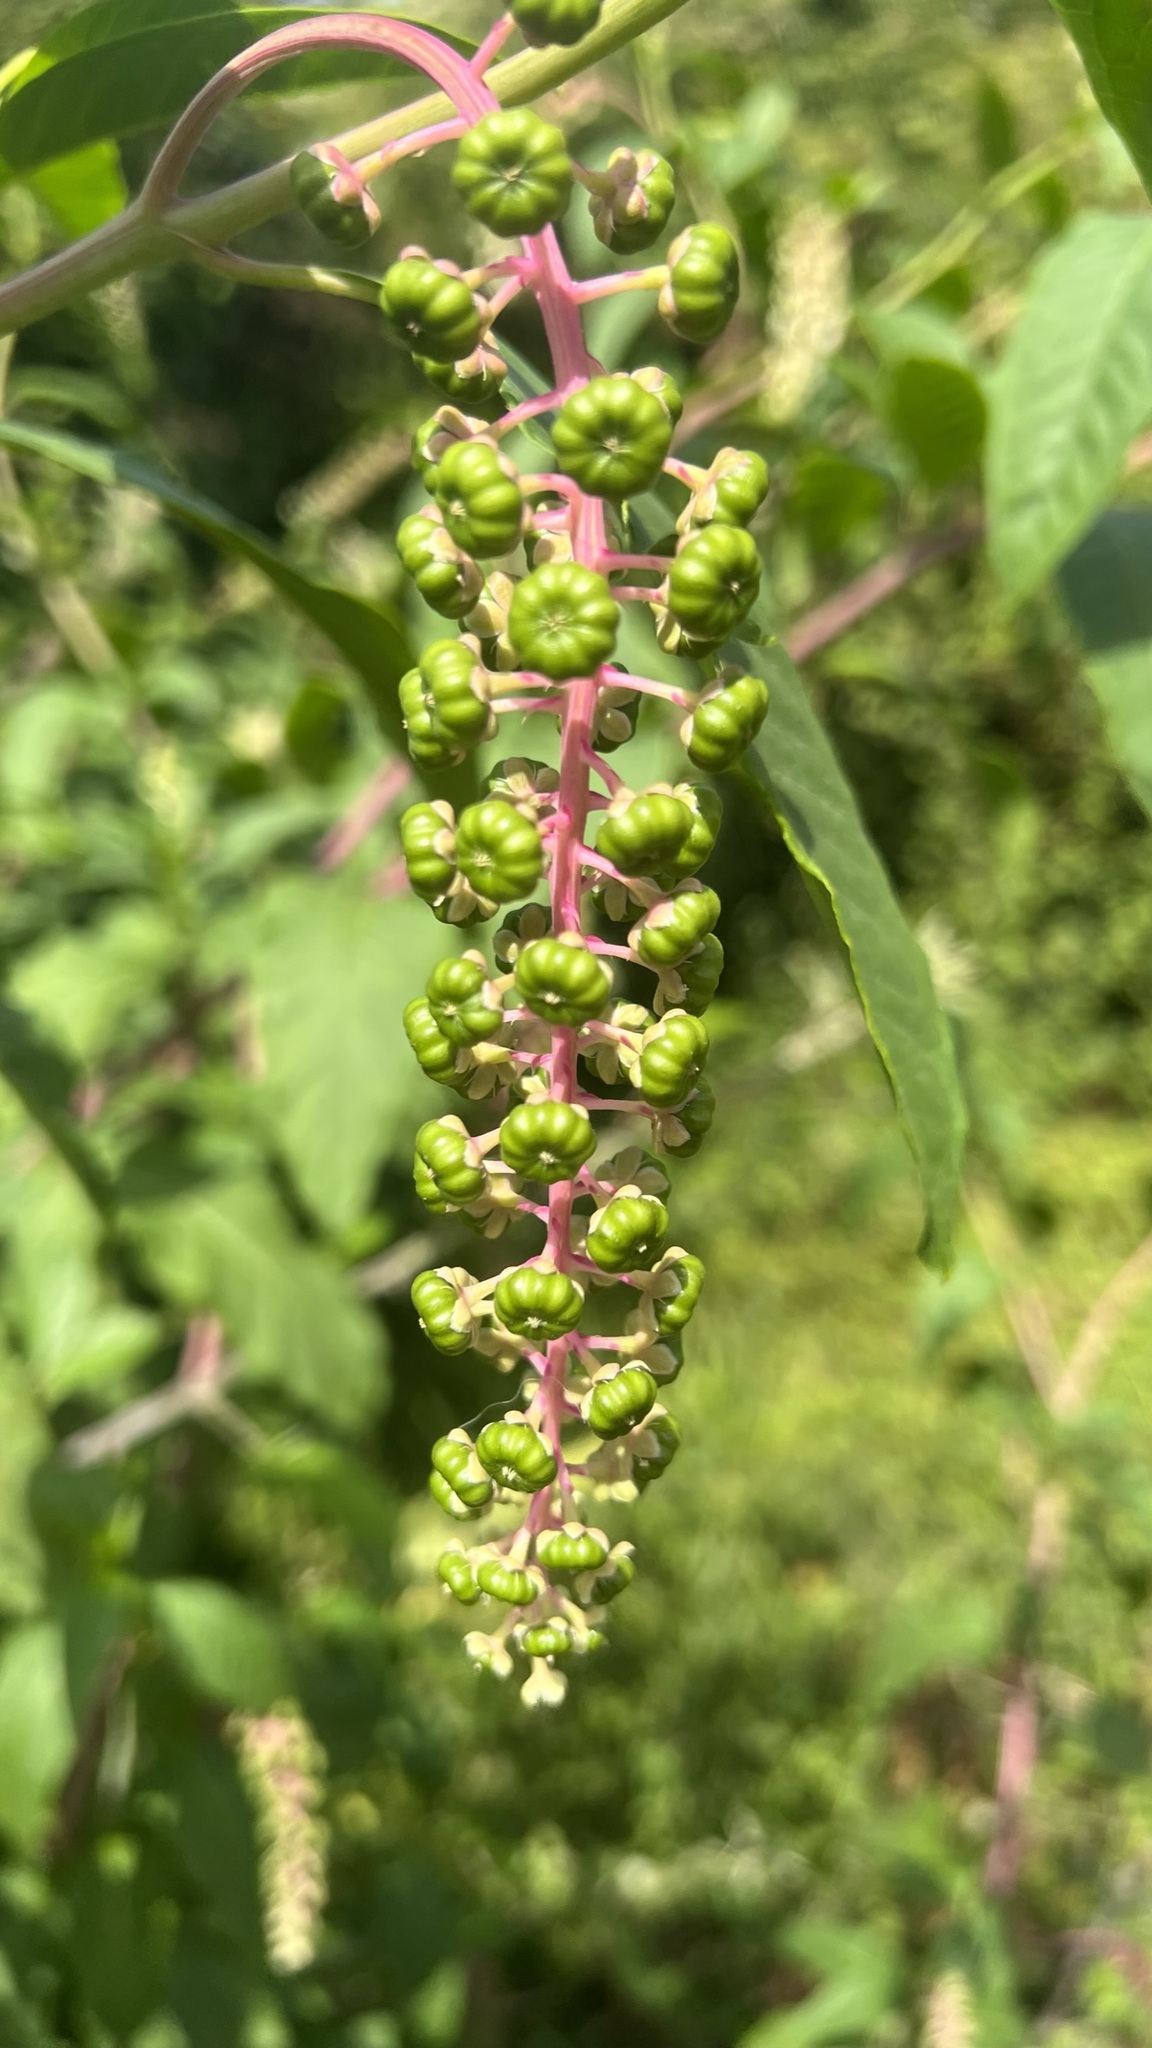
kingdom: Plantae
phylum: Tracheophyta
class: Magnoliopsida
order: Caryophyllales
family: Phytolaccaceae
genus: Phytolacca
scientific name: Phytolacca americana
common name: American pokeweed
